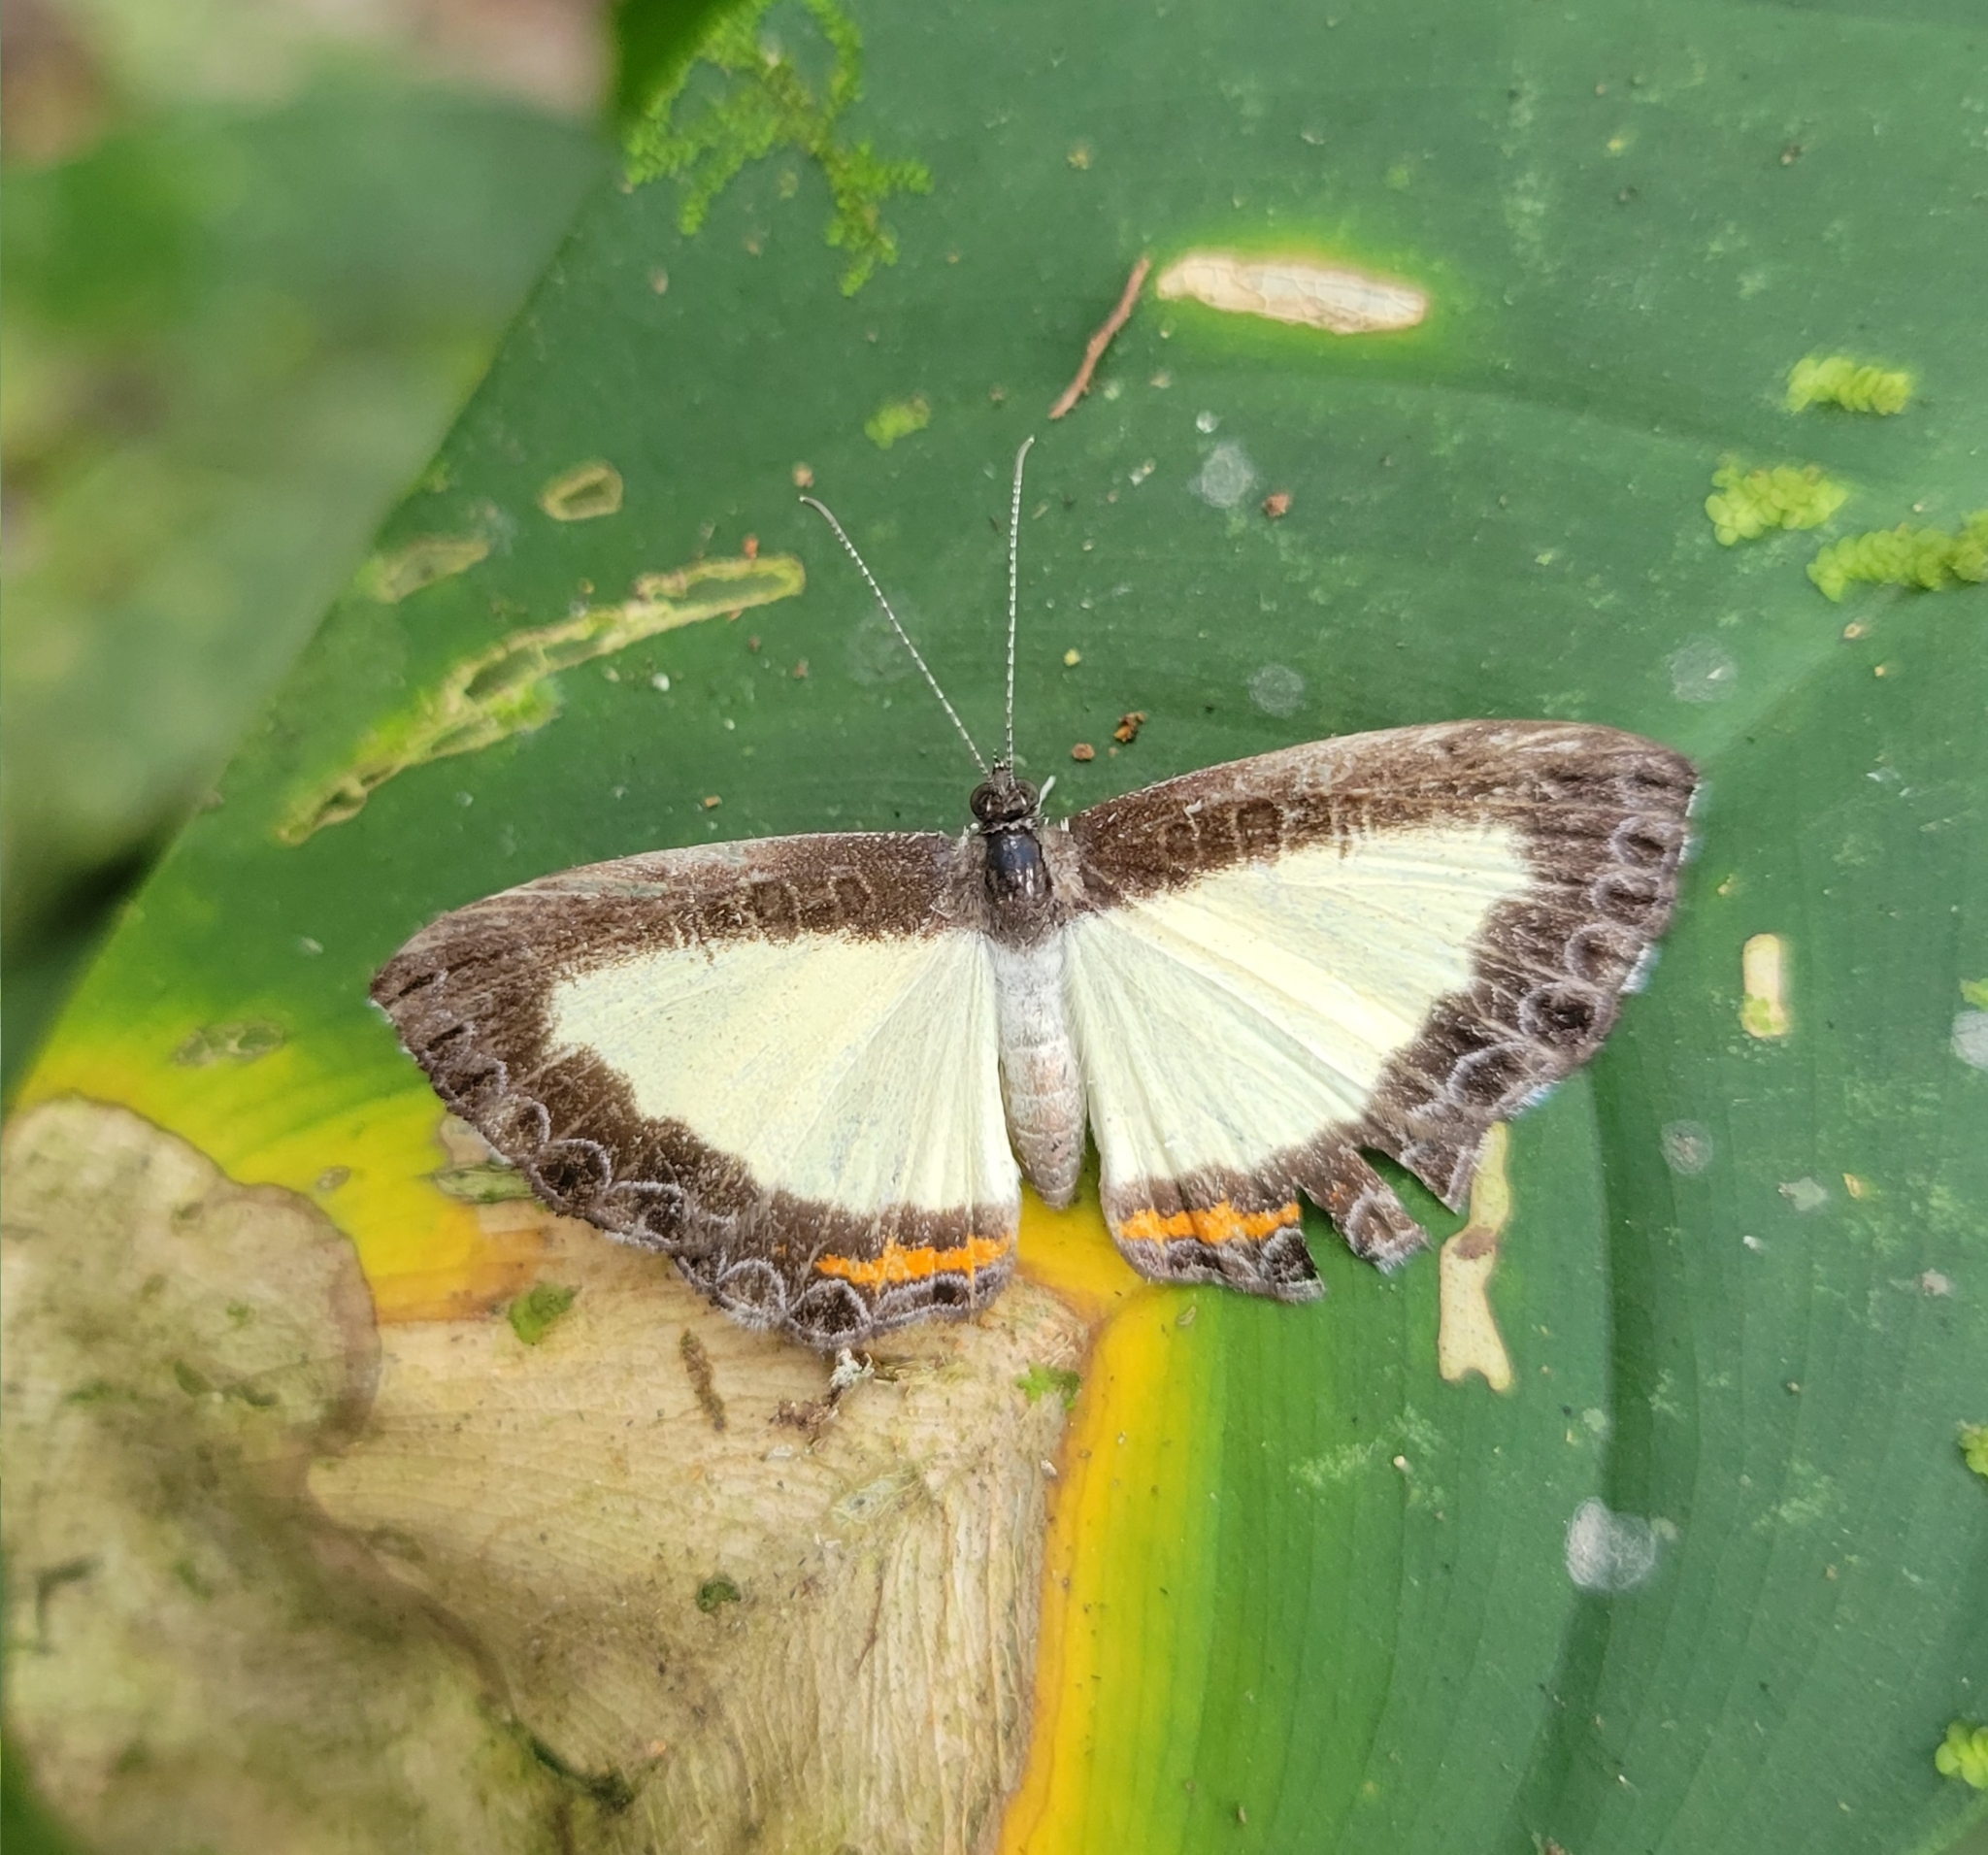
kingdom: Animalia
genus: Nymphidium
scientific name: Nymphidium cachrus
